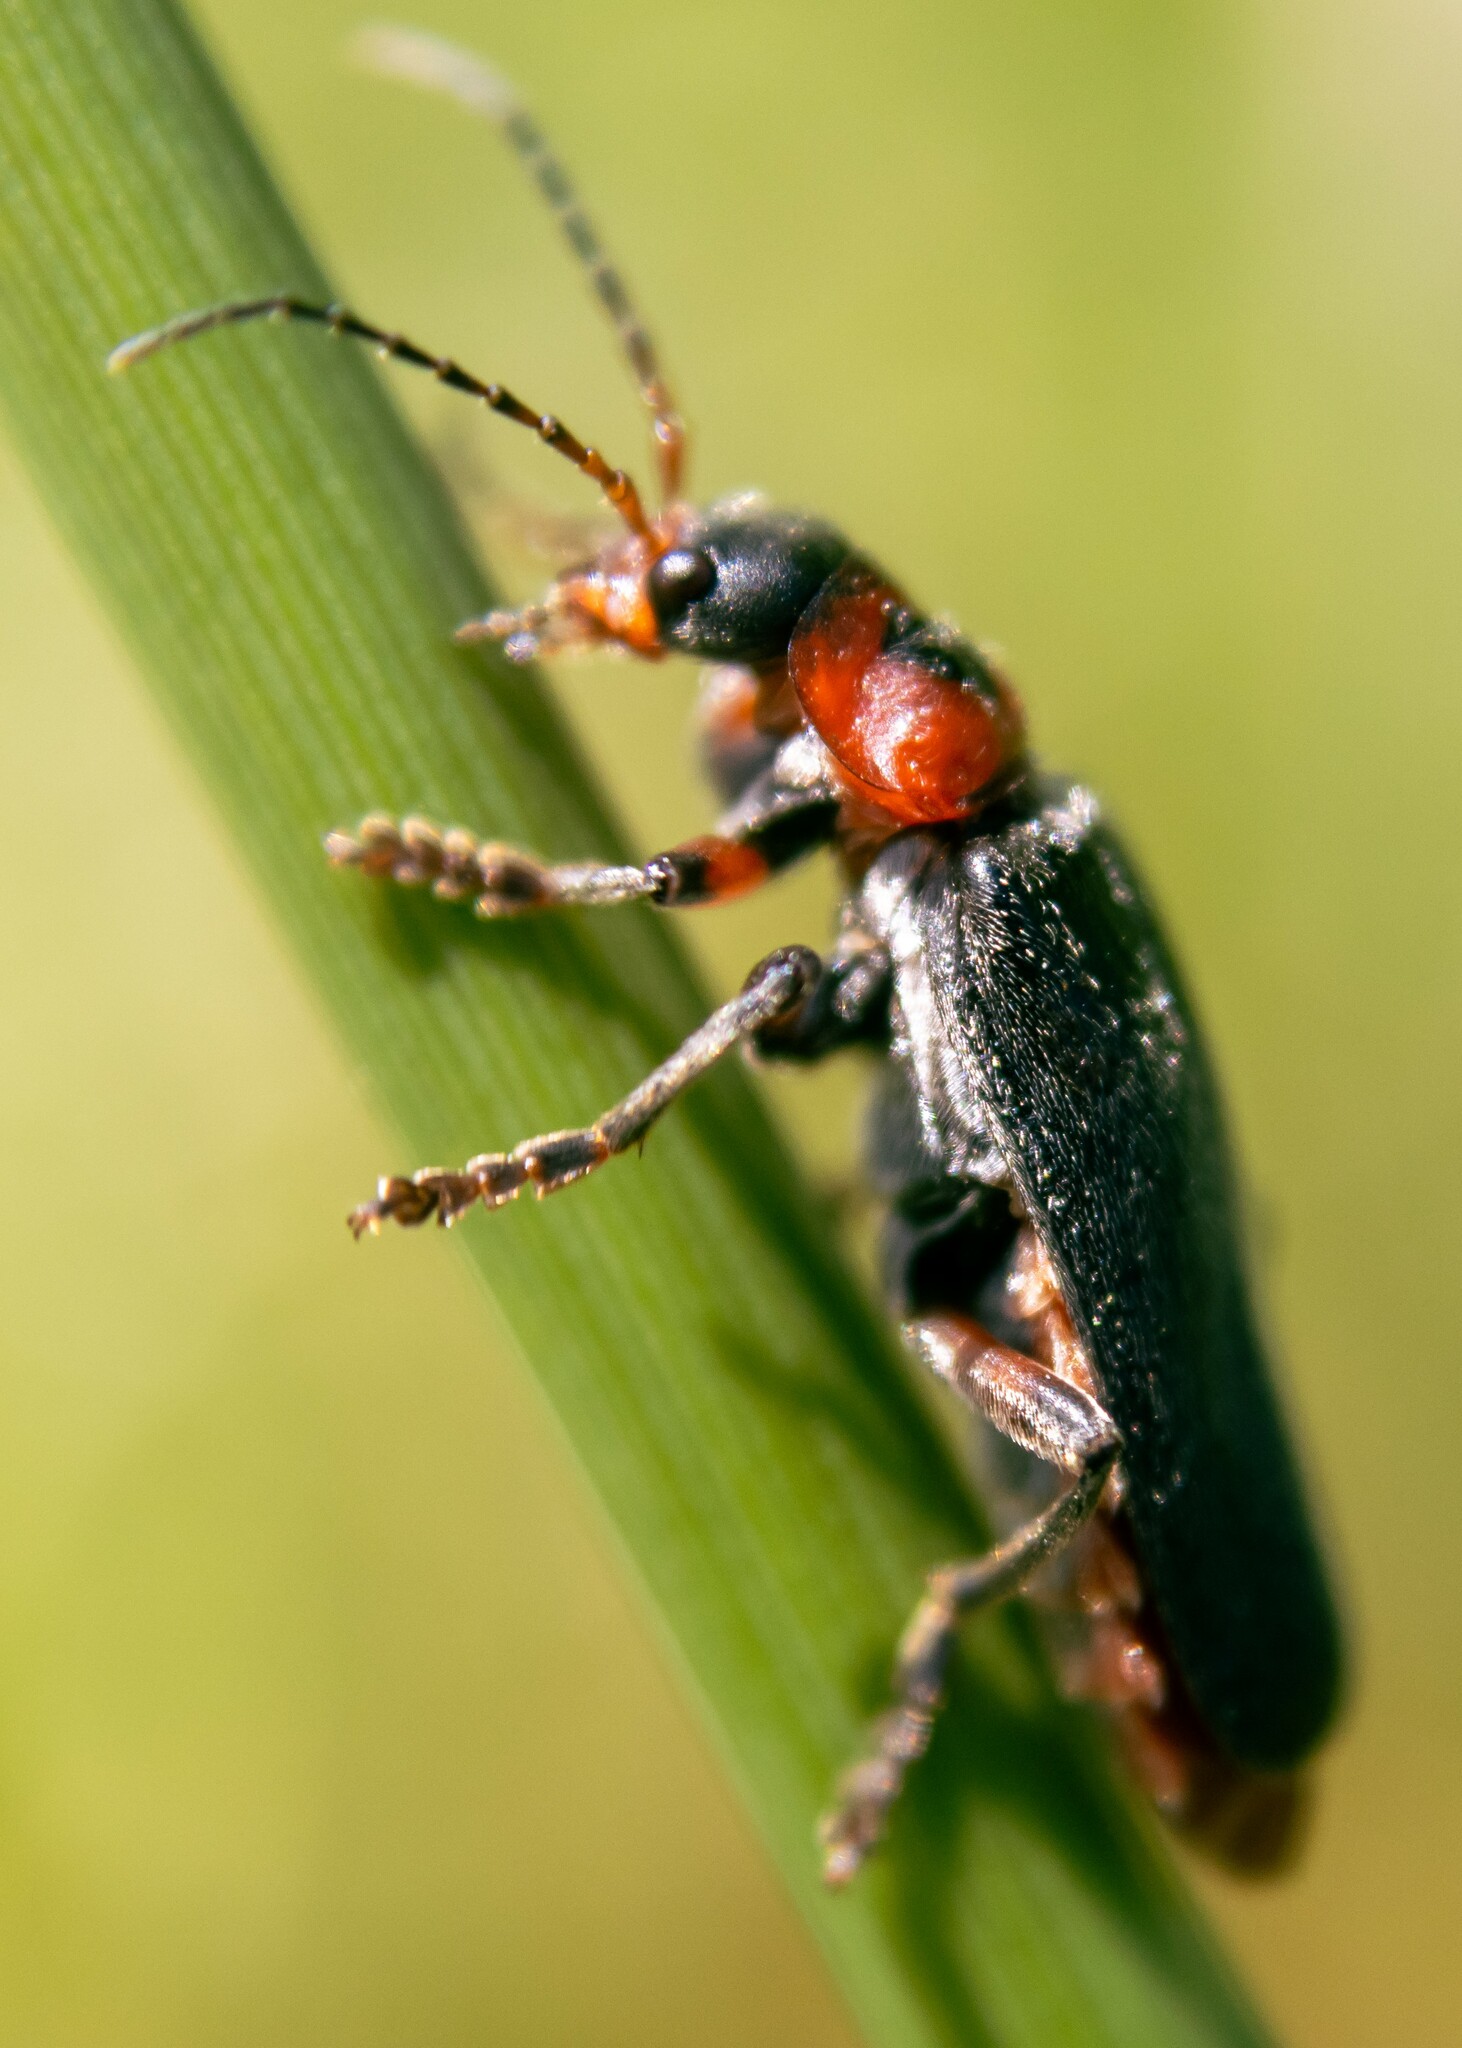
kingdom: Animalia
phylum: Arthropoda
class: Insecta
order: Coleoptera
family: Cantharidae
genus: Cantharis
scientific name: Cantharis rustica
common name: Soldier beetle
